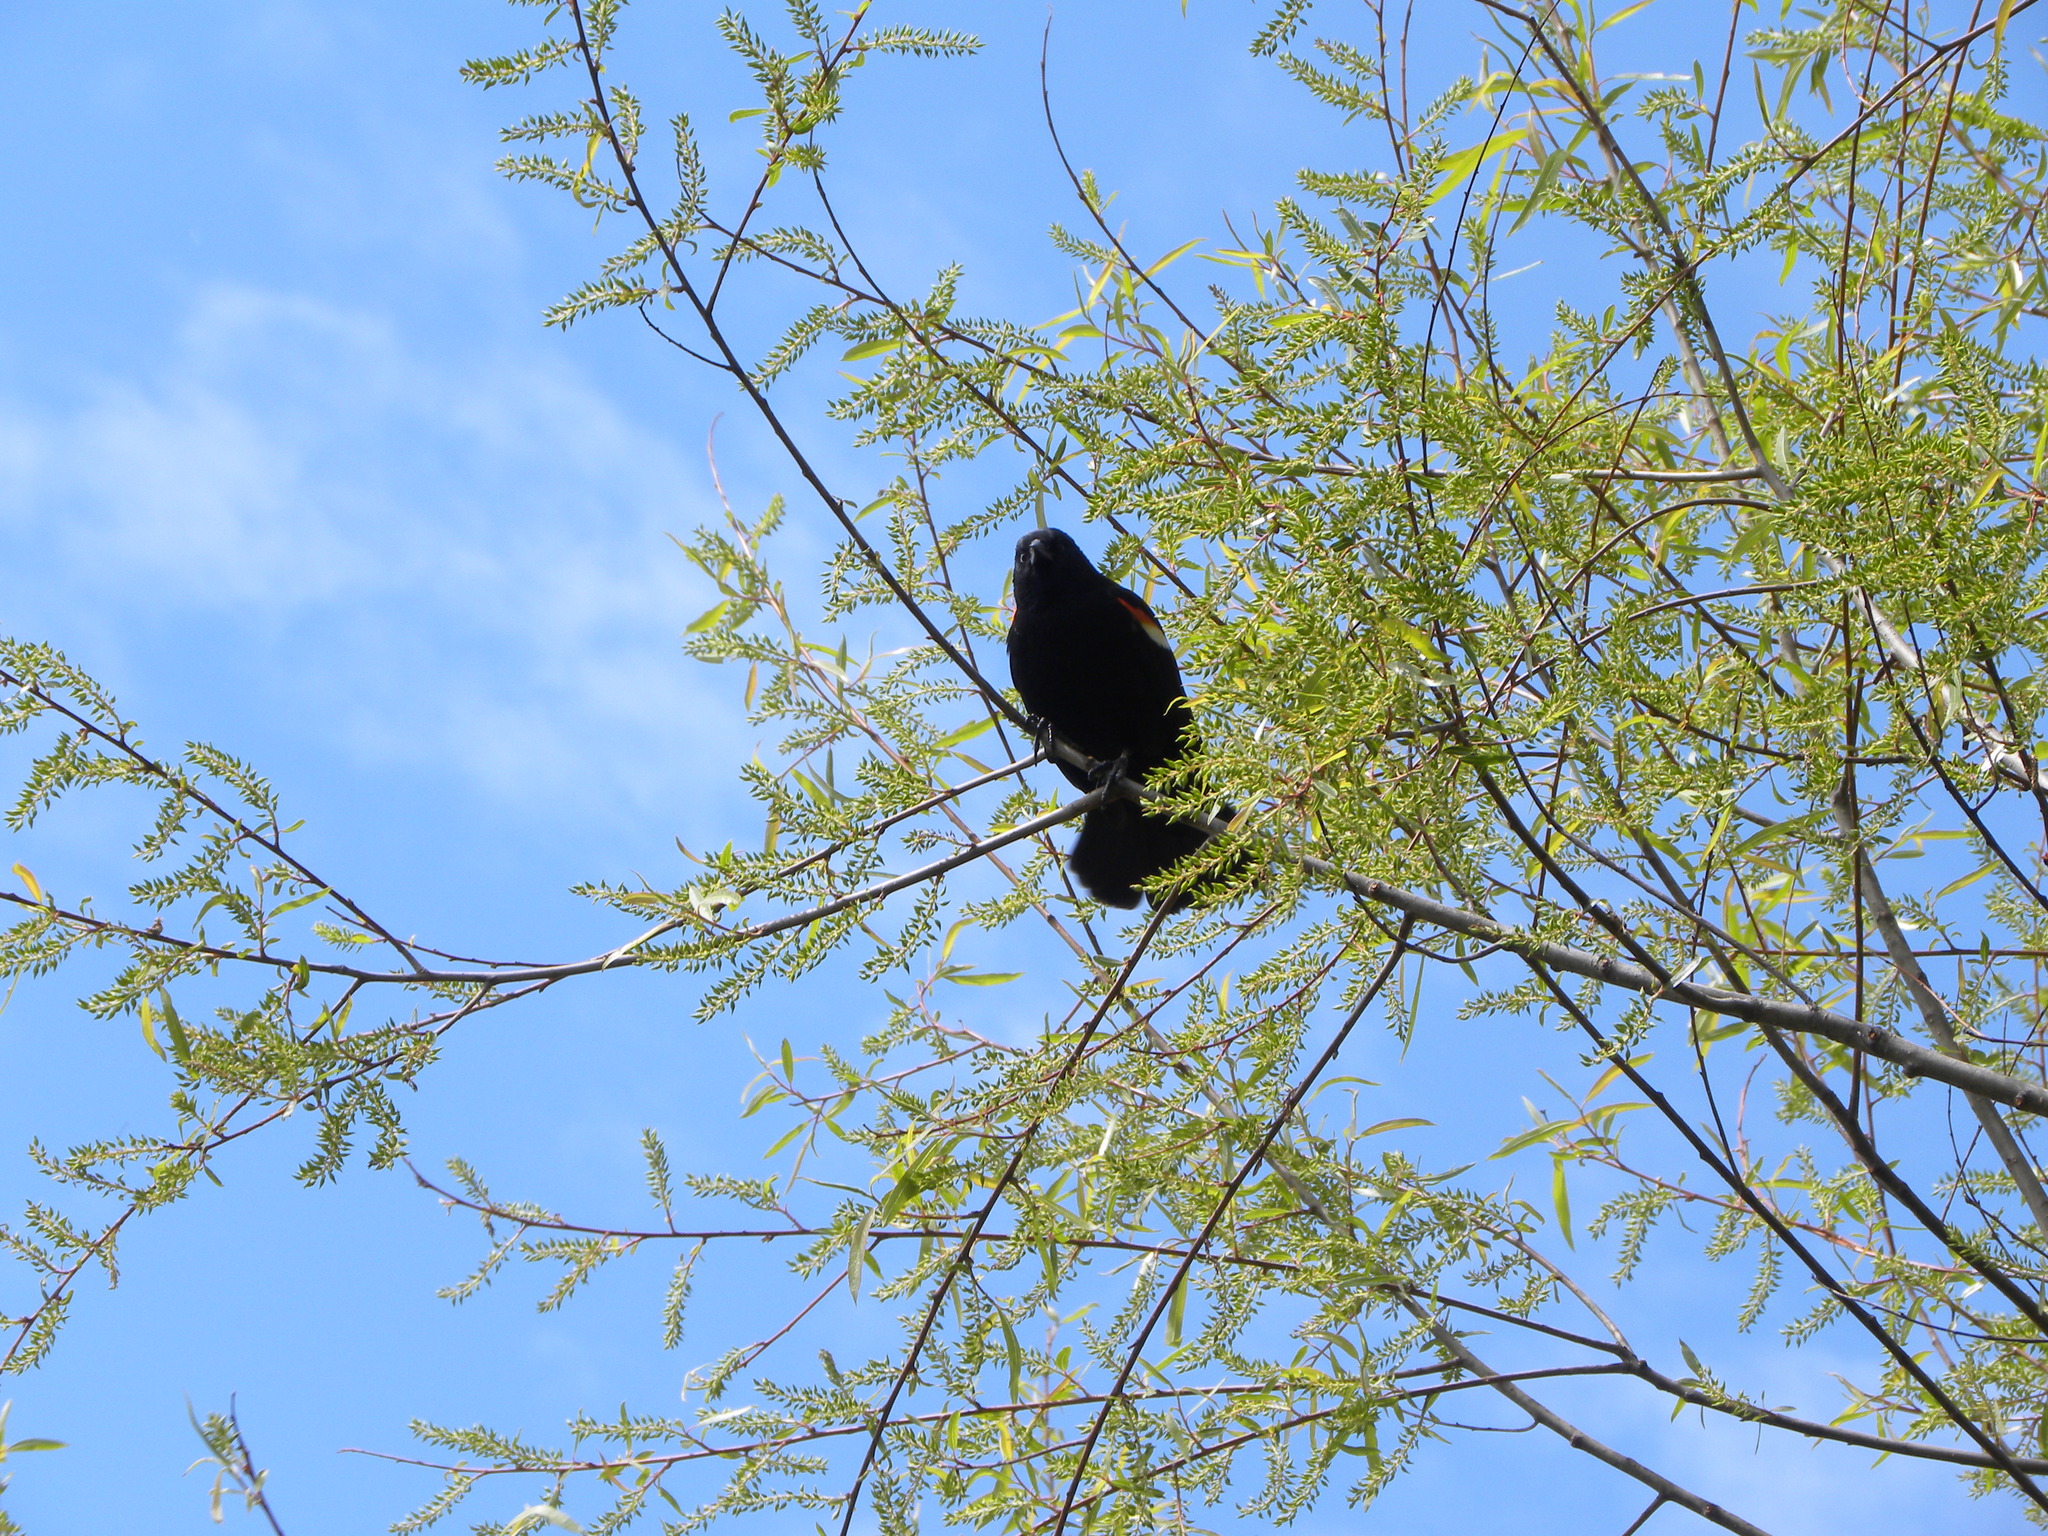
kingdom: Animalia
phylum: Chordata
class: Aves
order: Passeriformes
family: Icteridae
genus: Agelaius
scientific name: Agelaius phoeniceus
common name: Red-winged blackbird
